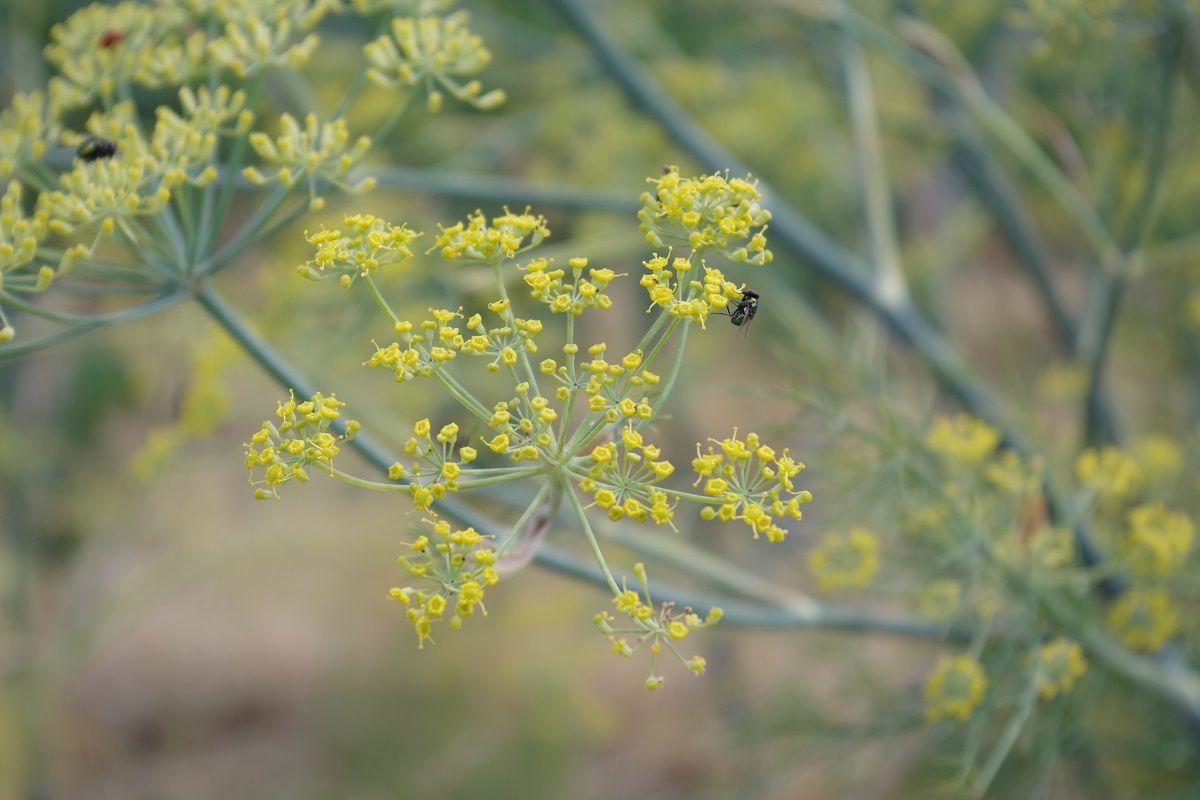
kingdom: Plantae
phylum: Tracheophyta
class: Magnoliopsida
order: Apiales
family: Apiaceae
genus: Foeniculum
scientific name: Foeniculum vulgare
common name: Fennel
